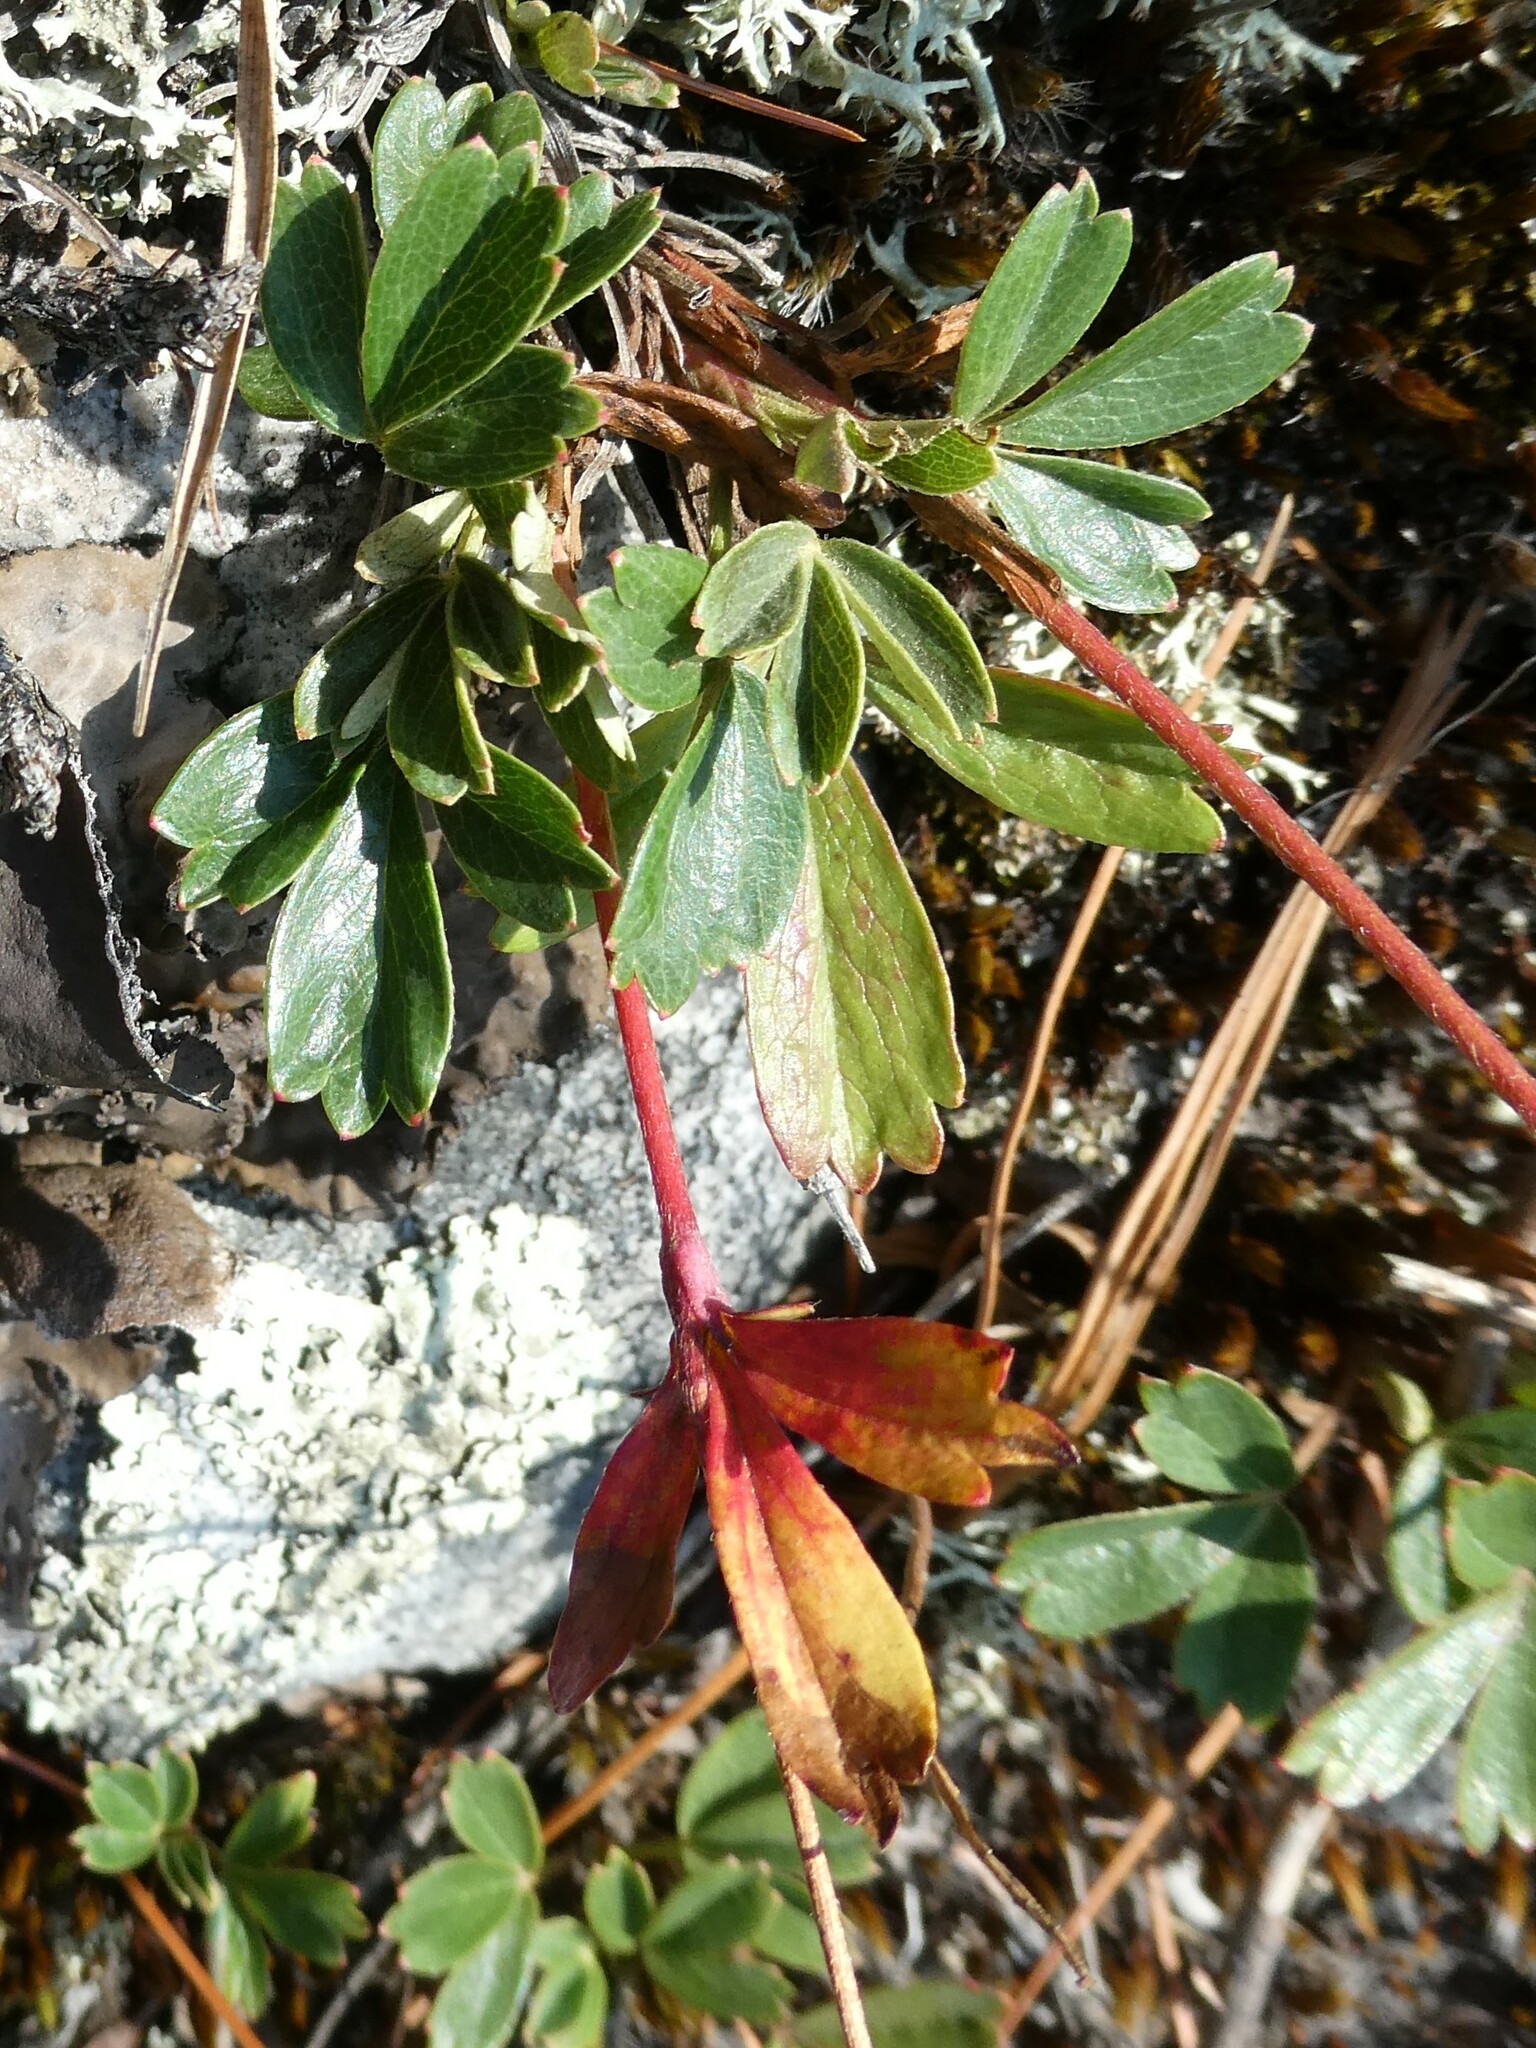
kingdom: Plantae
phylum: Tracheophyta
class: Magnoliopsida
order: Rosales
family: Rosaceae
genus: Sibbaldia
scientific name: Sibbaldia tridentata
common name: Three-toothed cinquefoil
